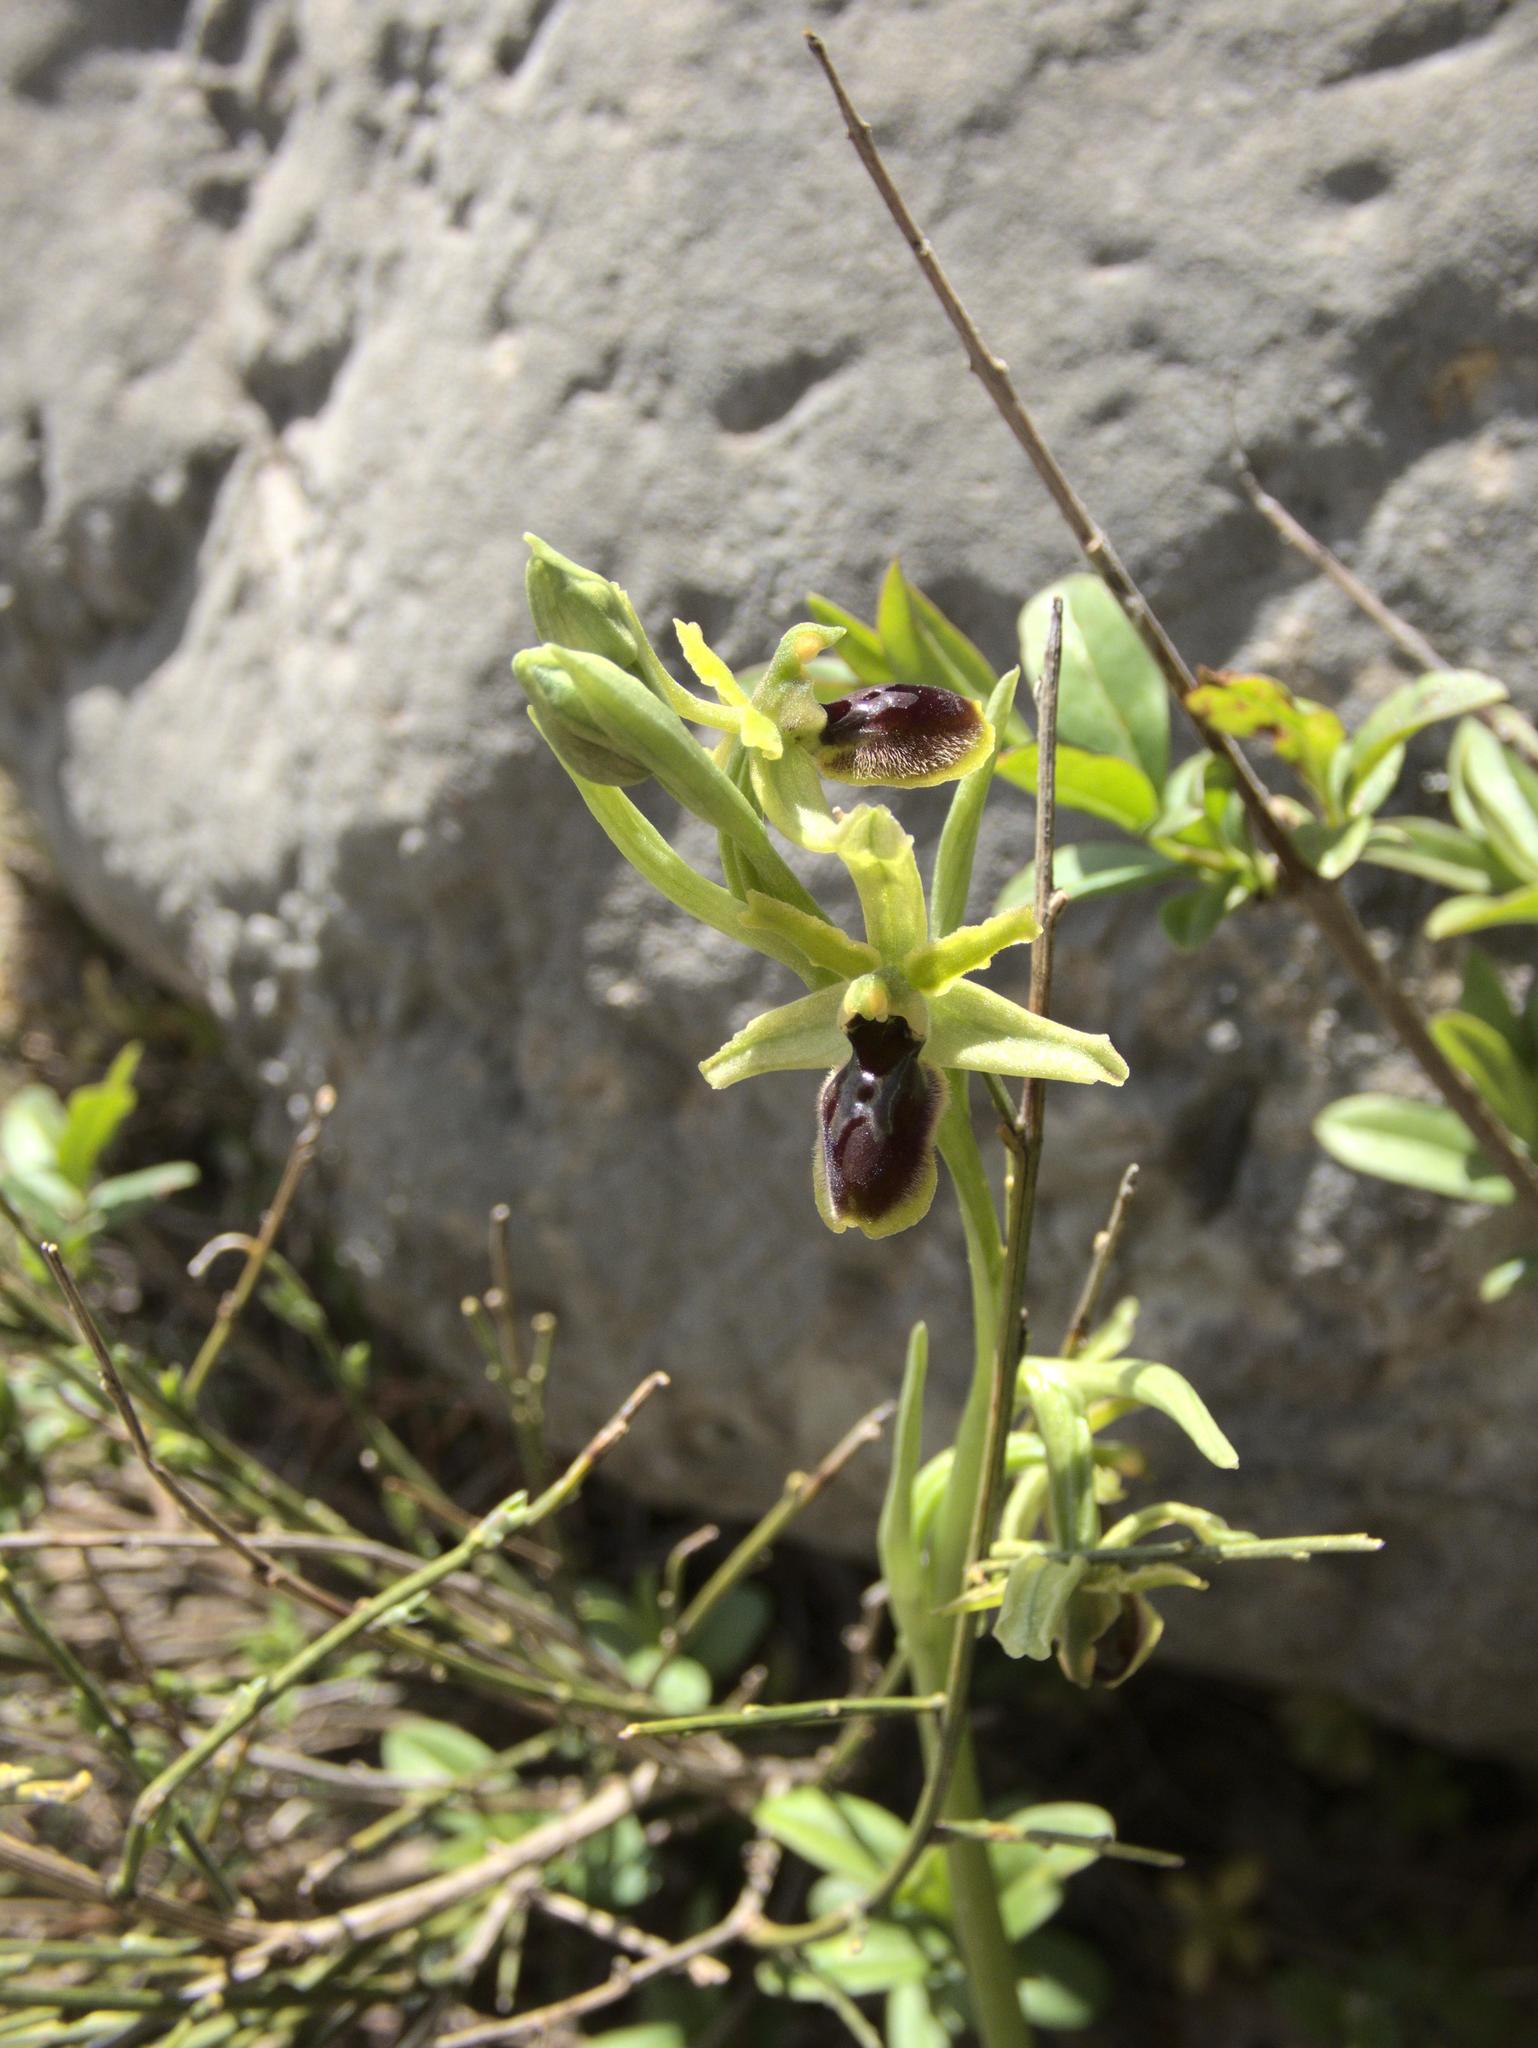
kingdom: Plantae
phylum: Tracheophyta
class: Liliopsida
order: Asparagales
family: Orchidaceae
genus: Ophrys
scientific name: Ophrys araneola
